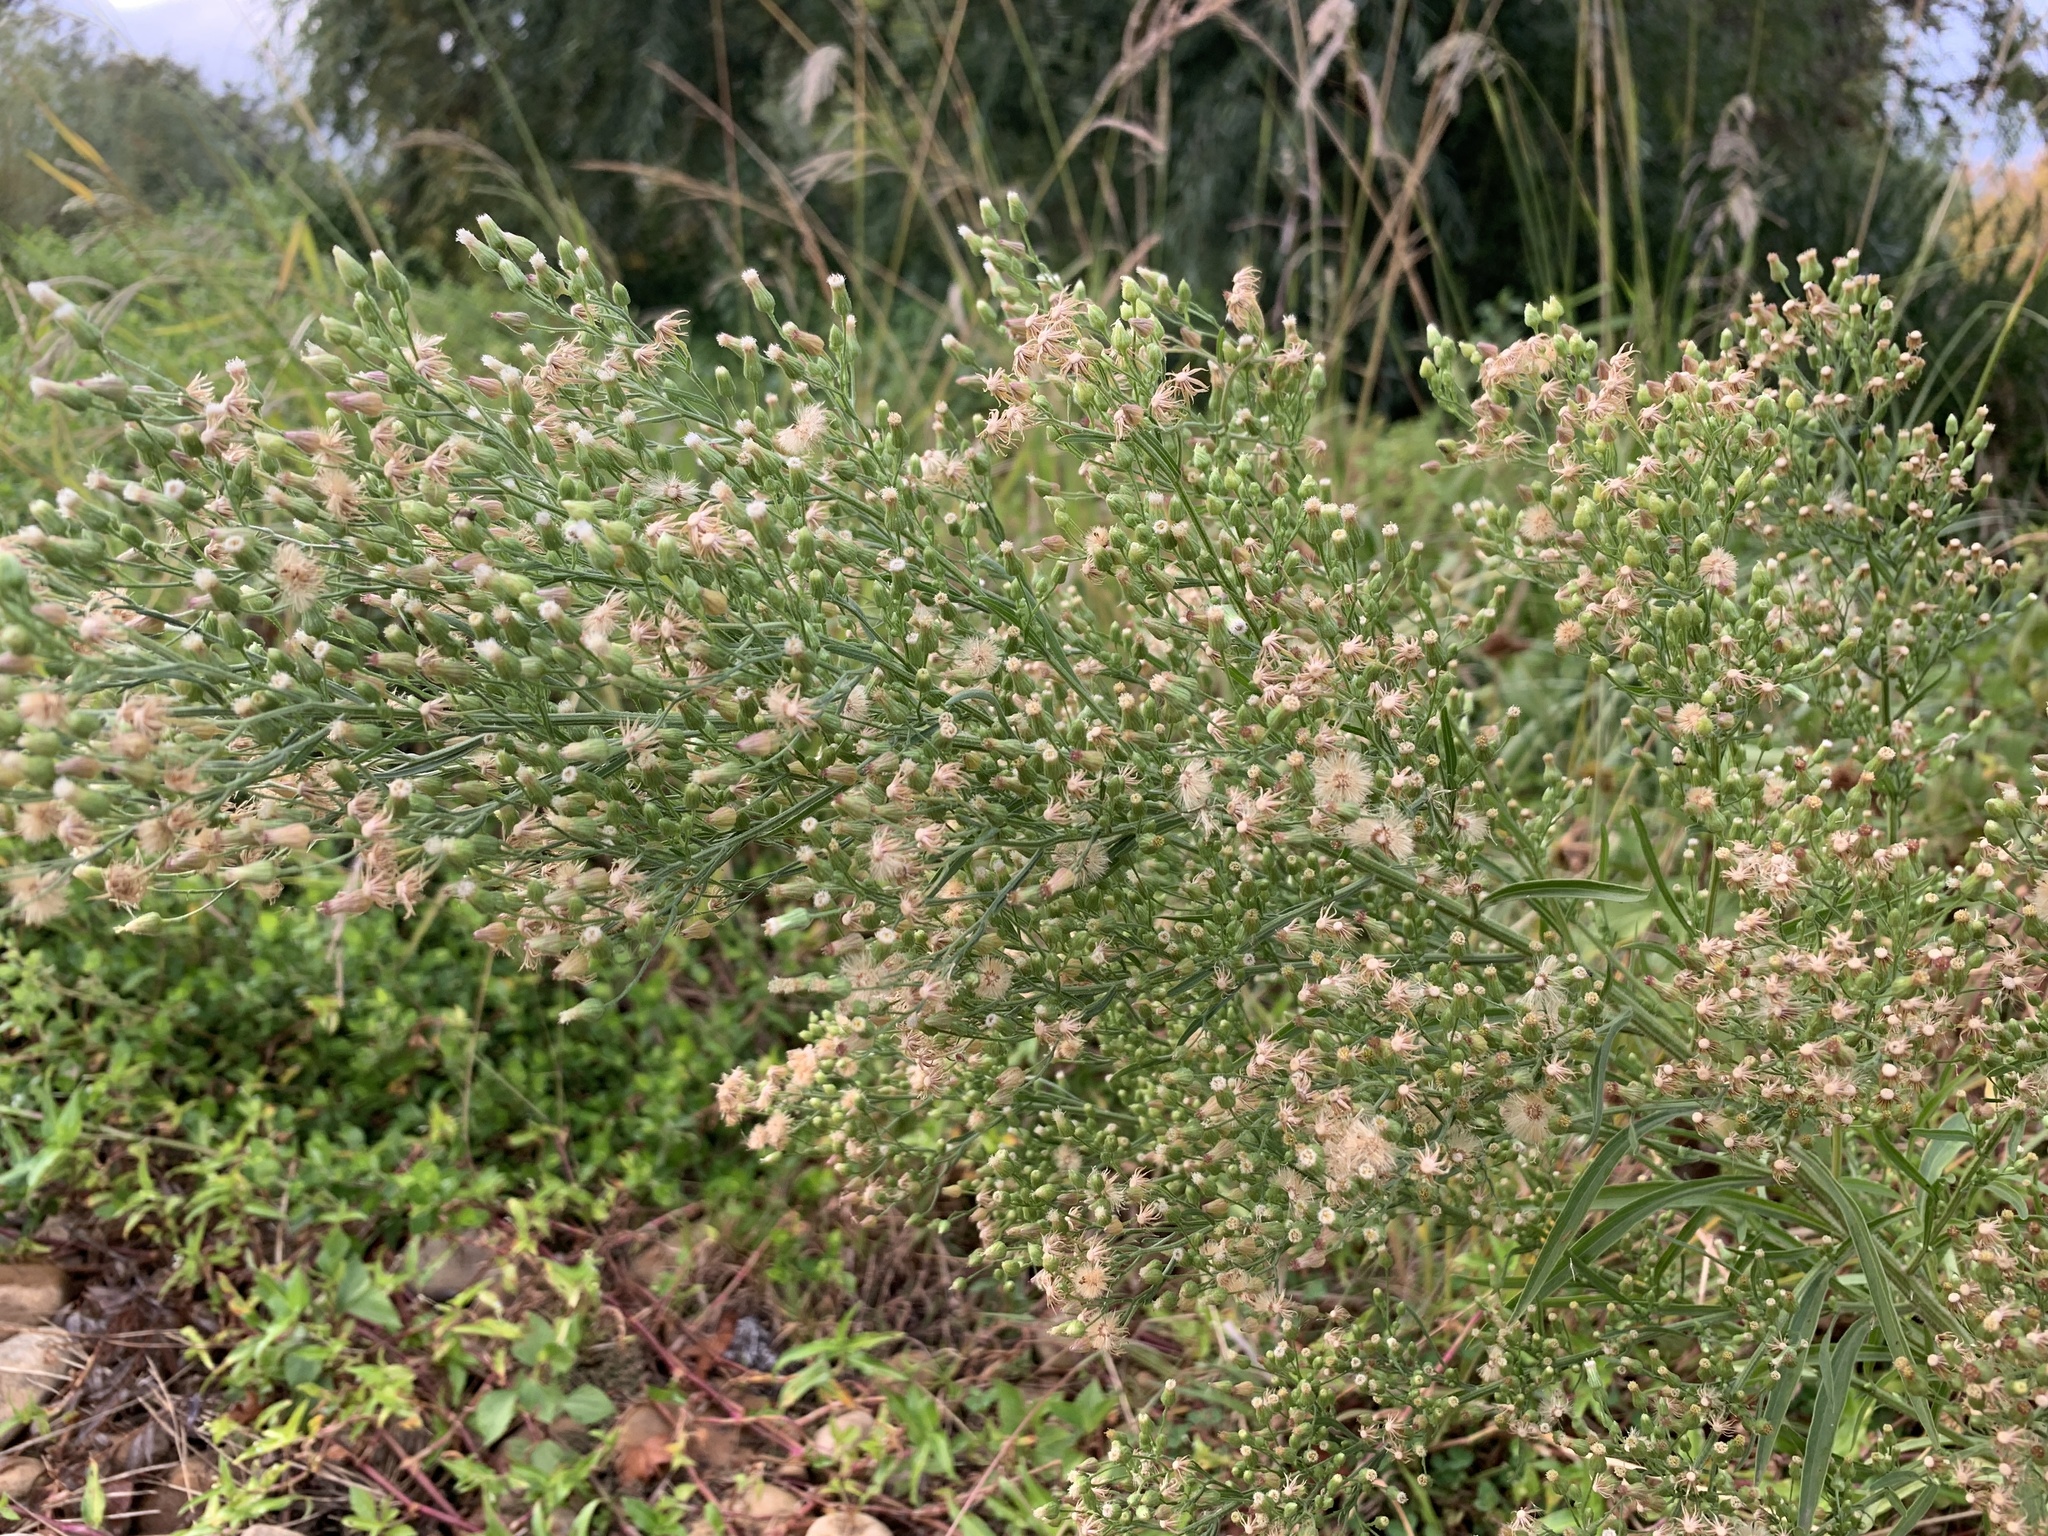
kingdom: Plantae
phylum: Tracheophyta
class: Magnoliopsida
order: Asterales
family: Asteraceae
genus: Erigeron
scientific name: Erigeron sumatrensis
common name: Daisy
